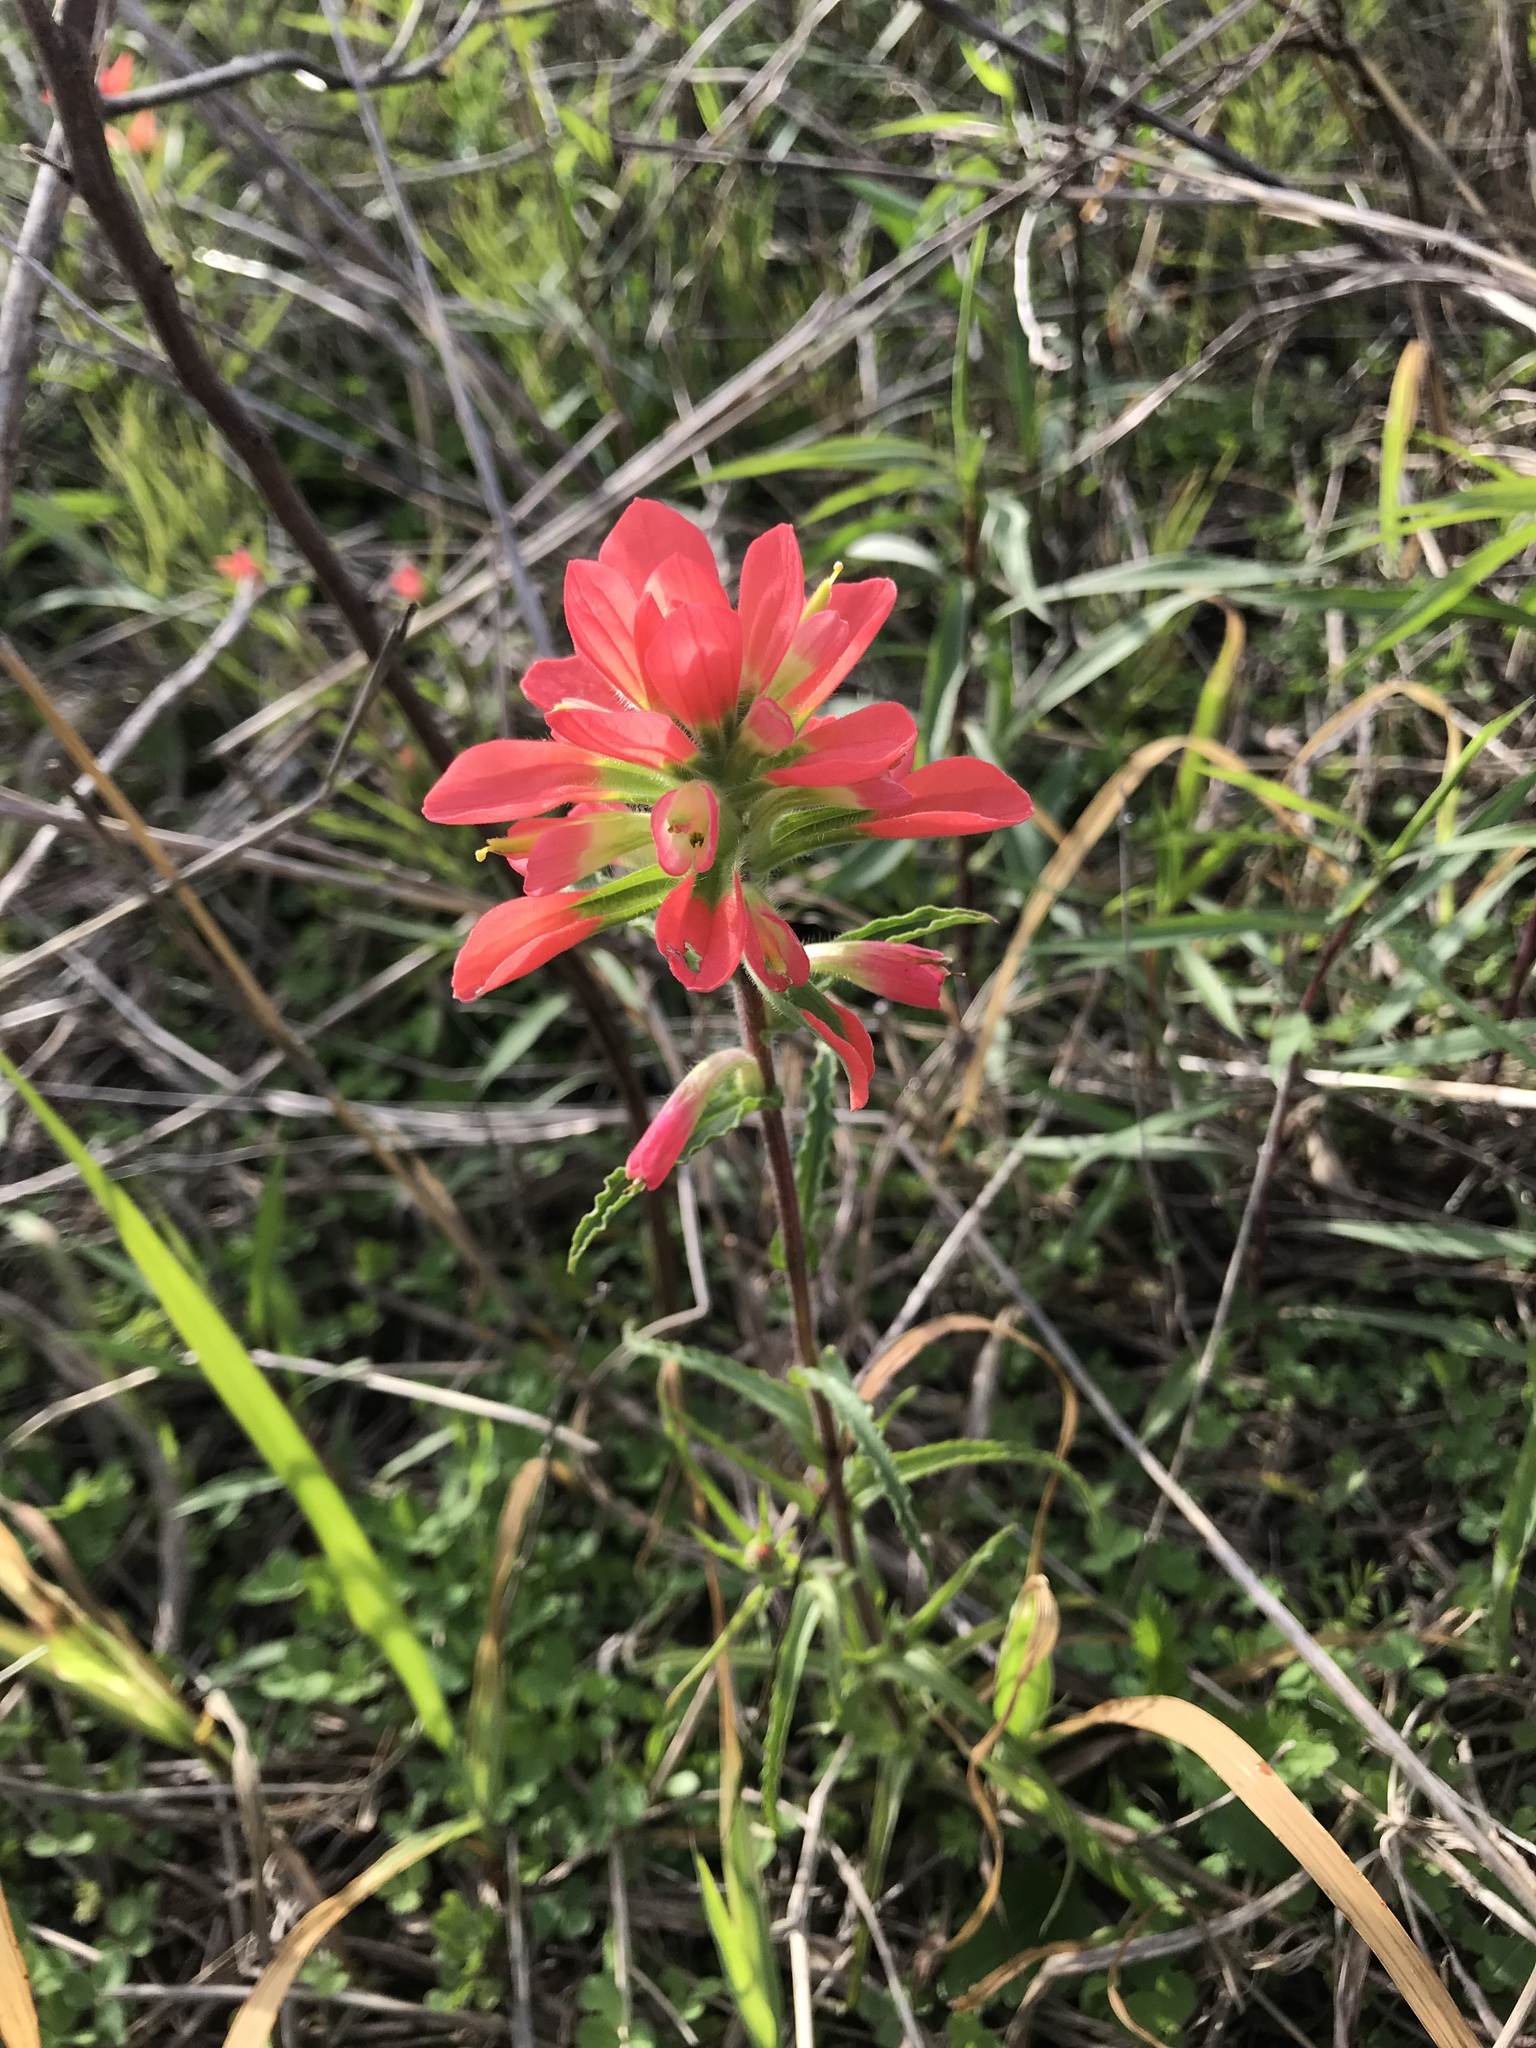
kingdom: Plantae
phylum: Tracheophyta
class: Magnoliopsida
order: Lamiales
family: Orobanchaceae
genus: Castilleja
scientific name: Castilleja indivisa
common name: Texas paintbrush
